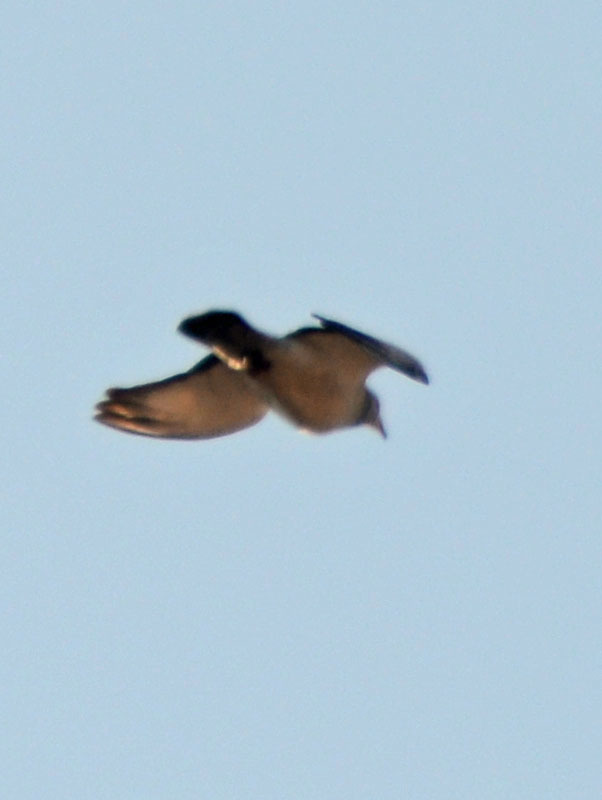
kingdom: Animalia
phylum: Chordata
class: Aves
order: Columbiformes
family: Columbidae
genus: Columba
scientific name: Columba livia
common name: Rock pigeon
